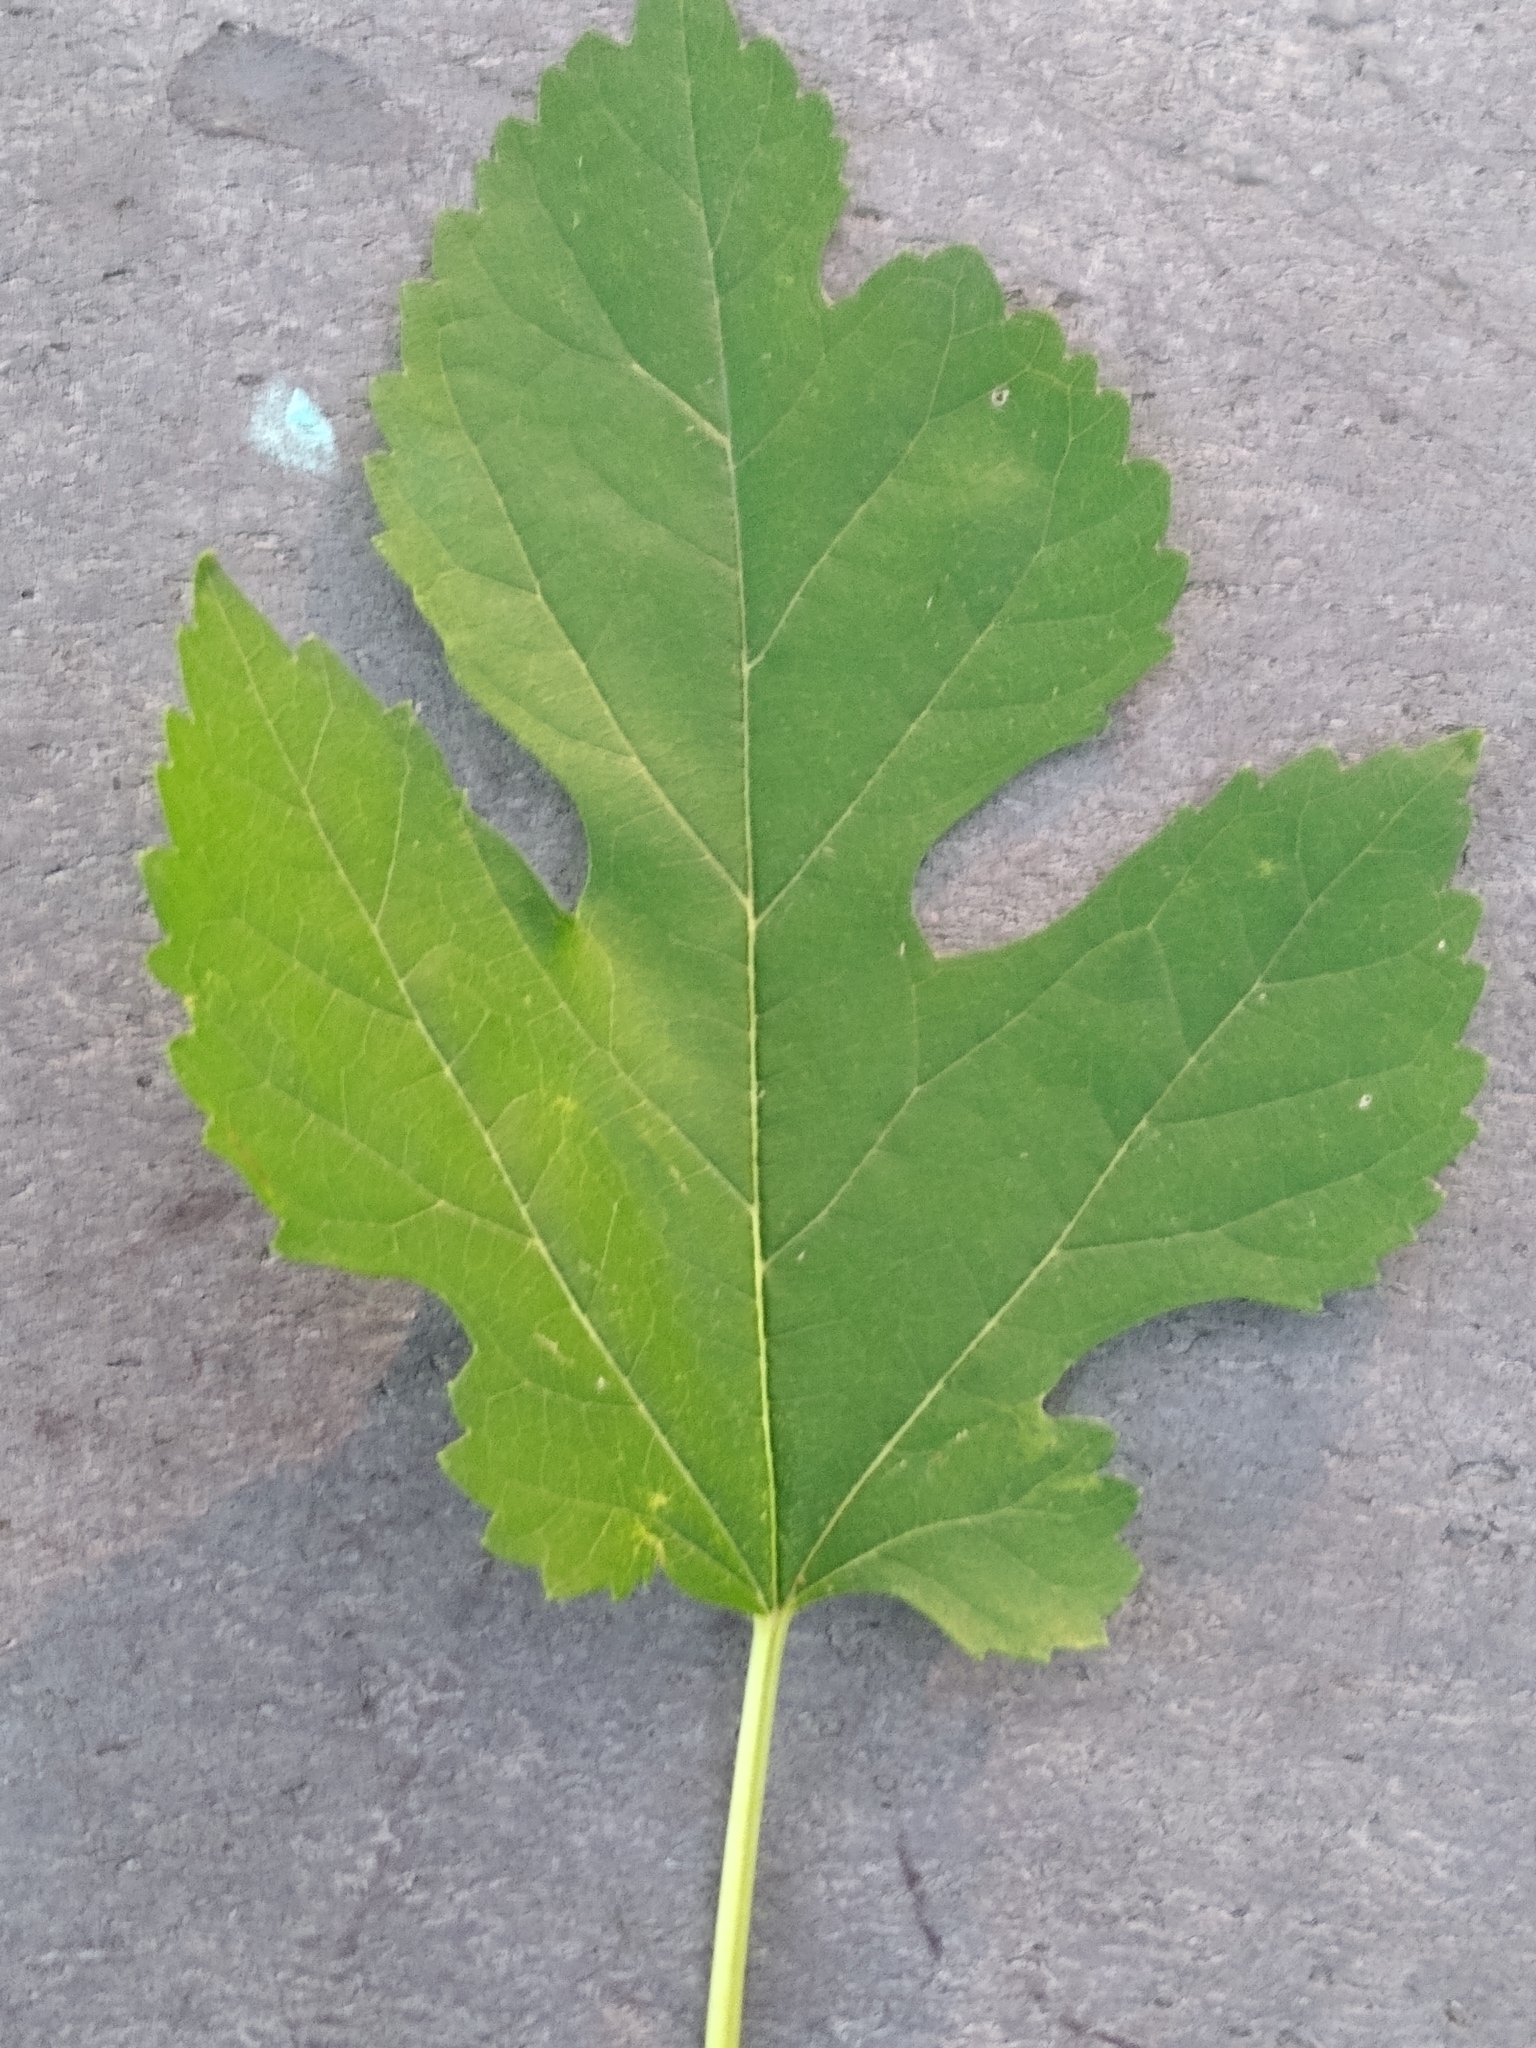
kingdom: Plantae
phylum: Tracheophyta
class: Magnoliopsida
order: Rosales
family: Moraceae
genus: Morus
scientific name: Morus alba
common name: White mulberry
